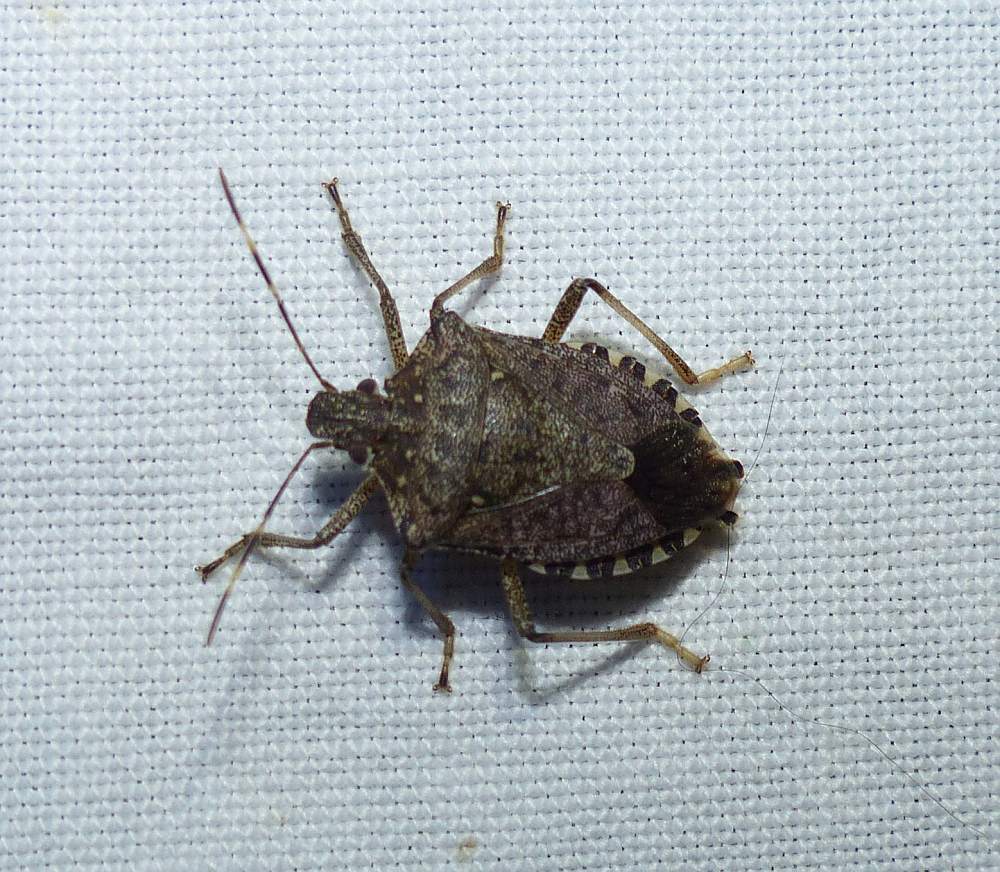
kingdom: Animalia
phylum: Arthropoda
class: Insecta
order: Hemiptera
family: Pentatomidae
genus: Halyomorpha
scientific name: Halyomorpha halys
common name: Brown marmorated stink bug
